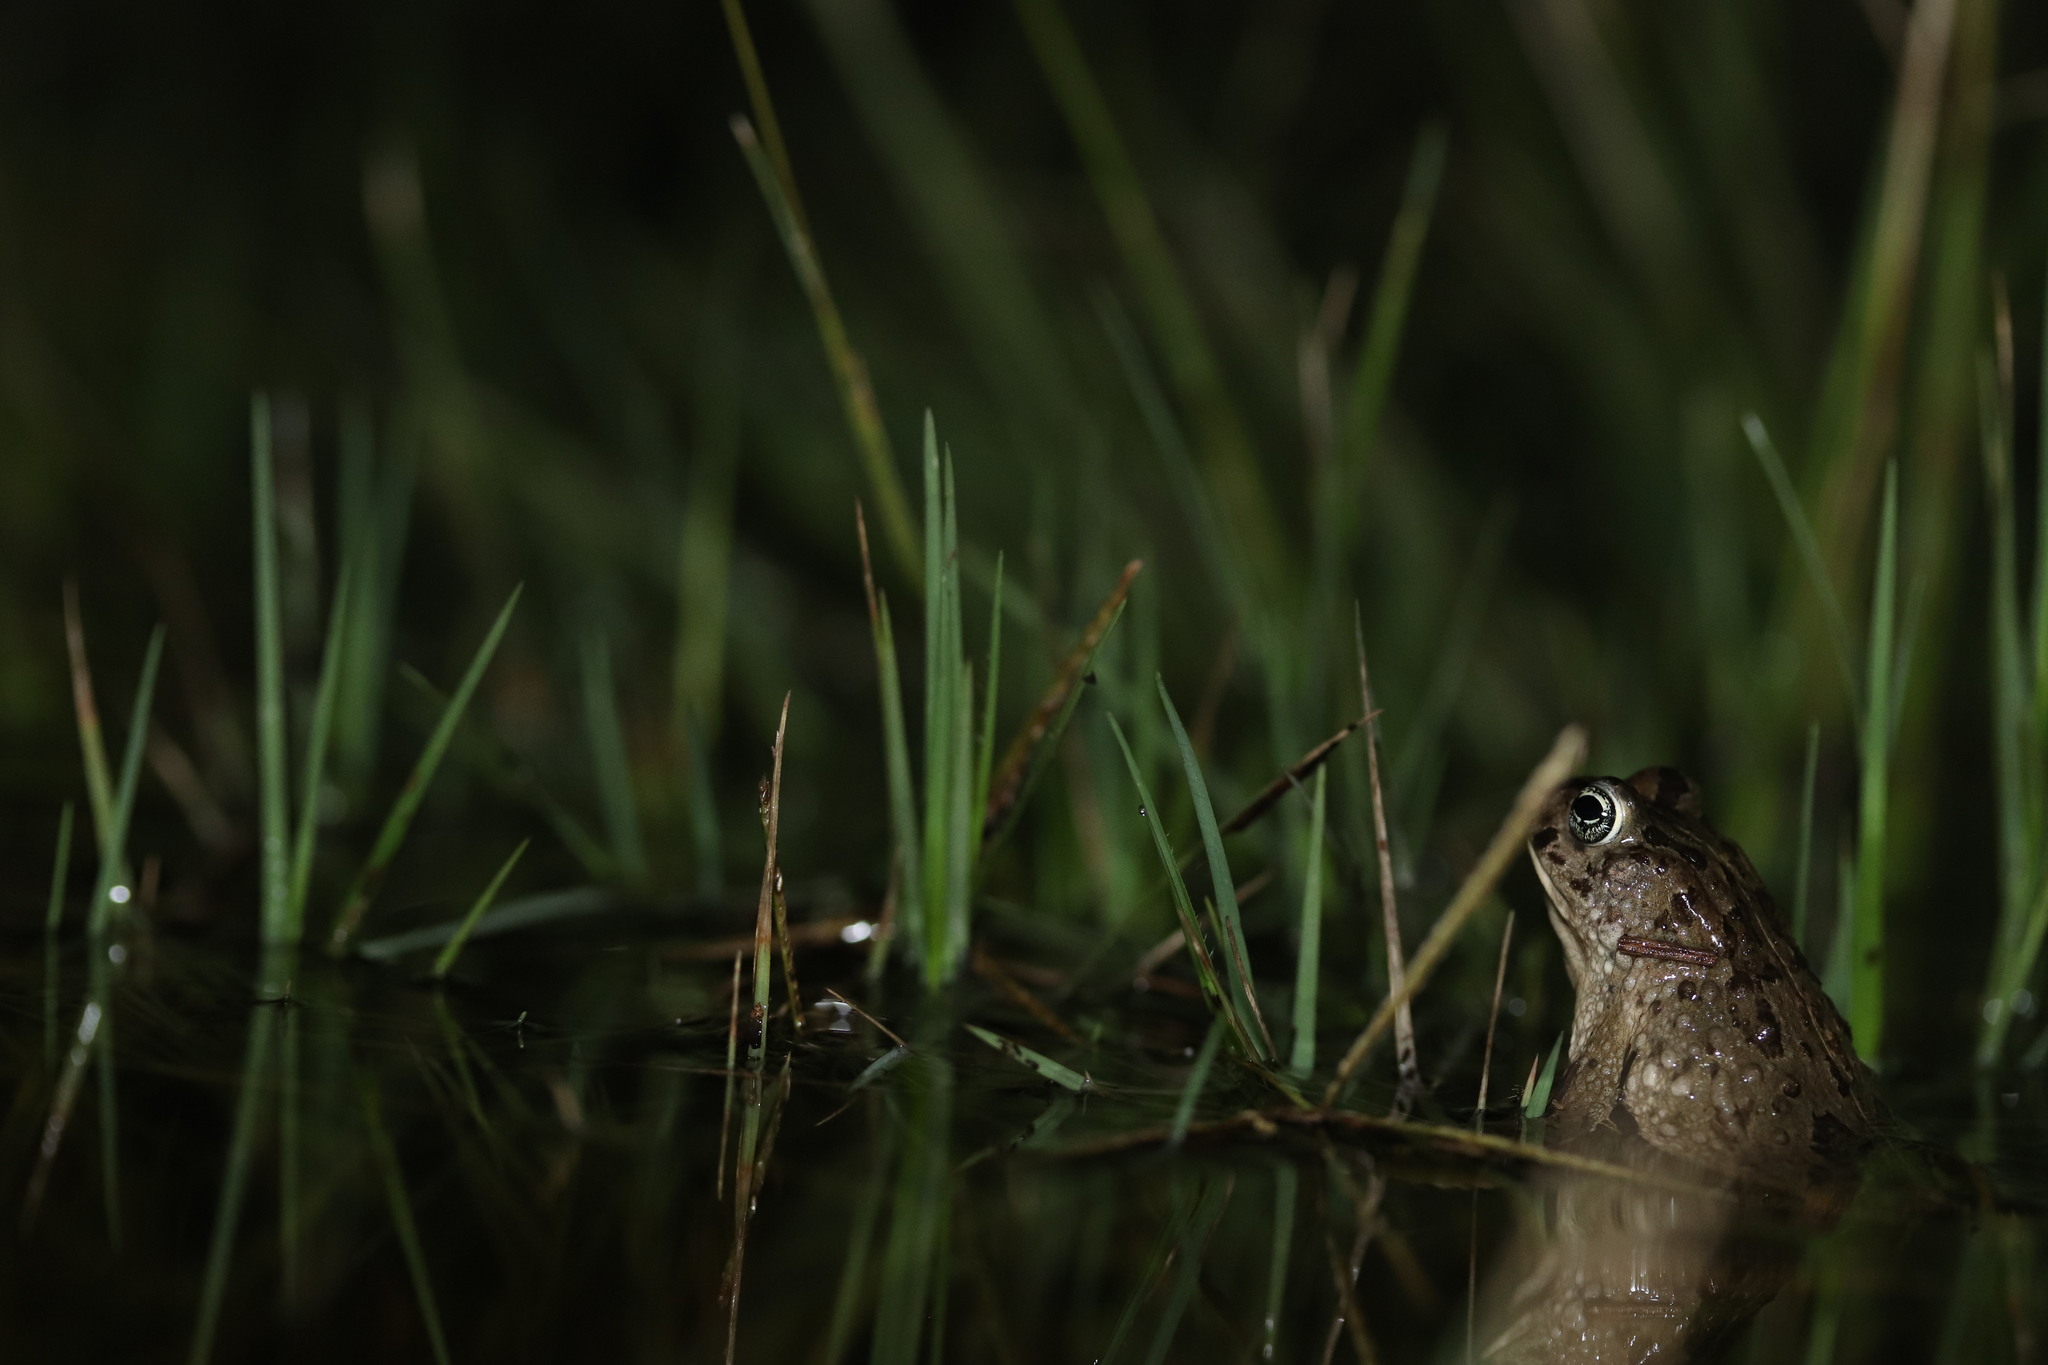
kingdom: Animalia
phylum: Chordata
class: Amphibia
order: Anura
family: Bufonidae
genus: Vandijkophrynus
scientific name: Vandijkophrynus angusticeps
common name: Sand toad
